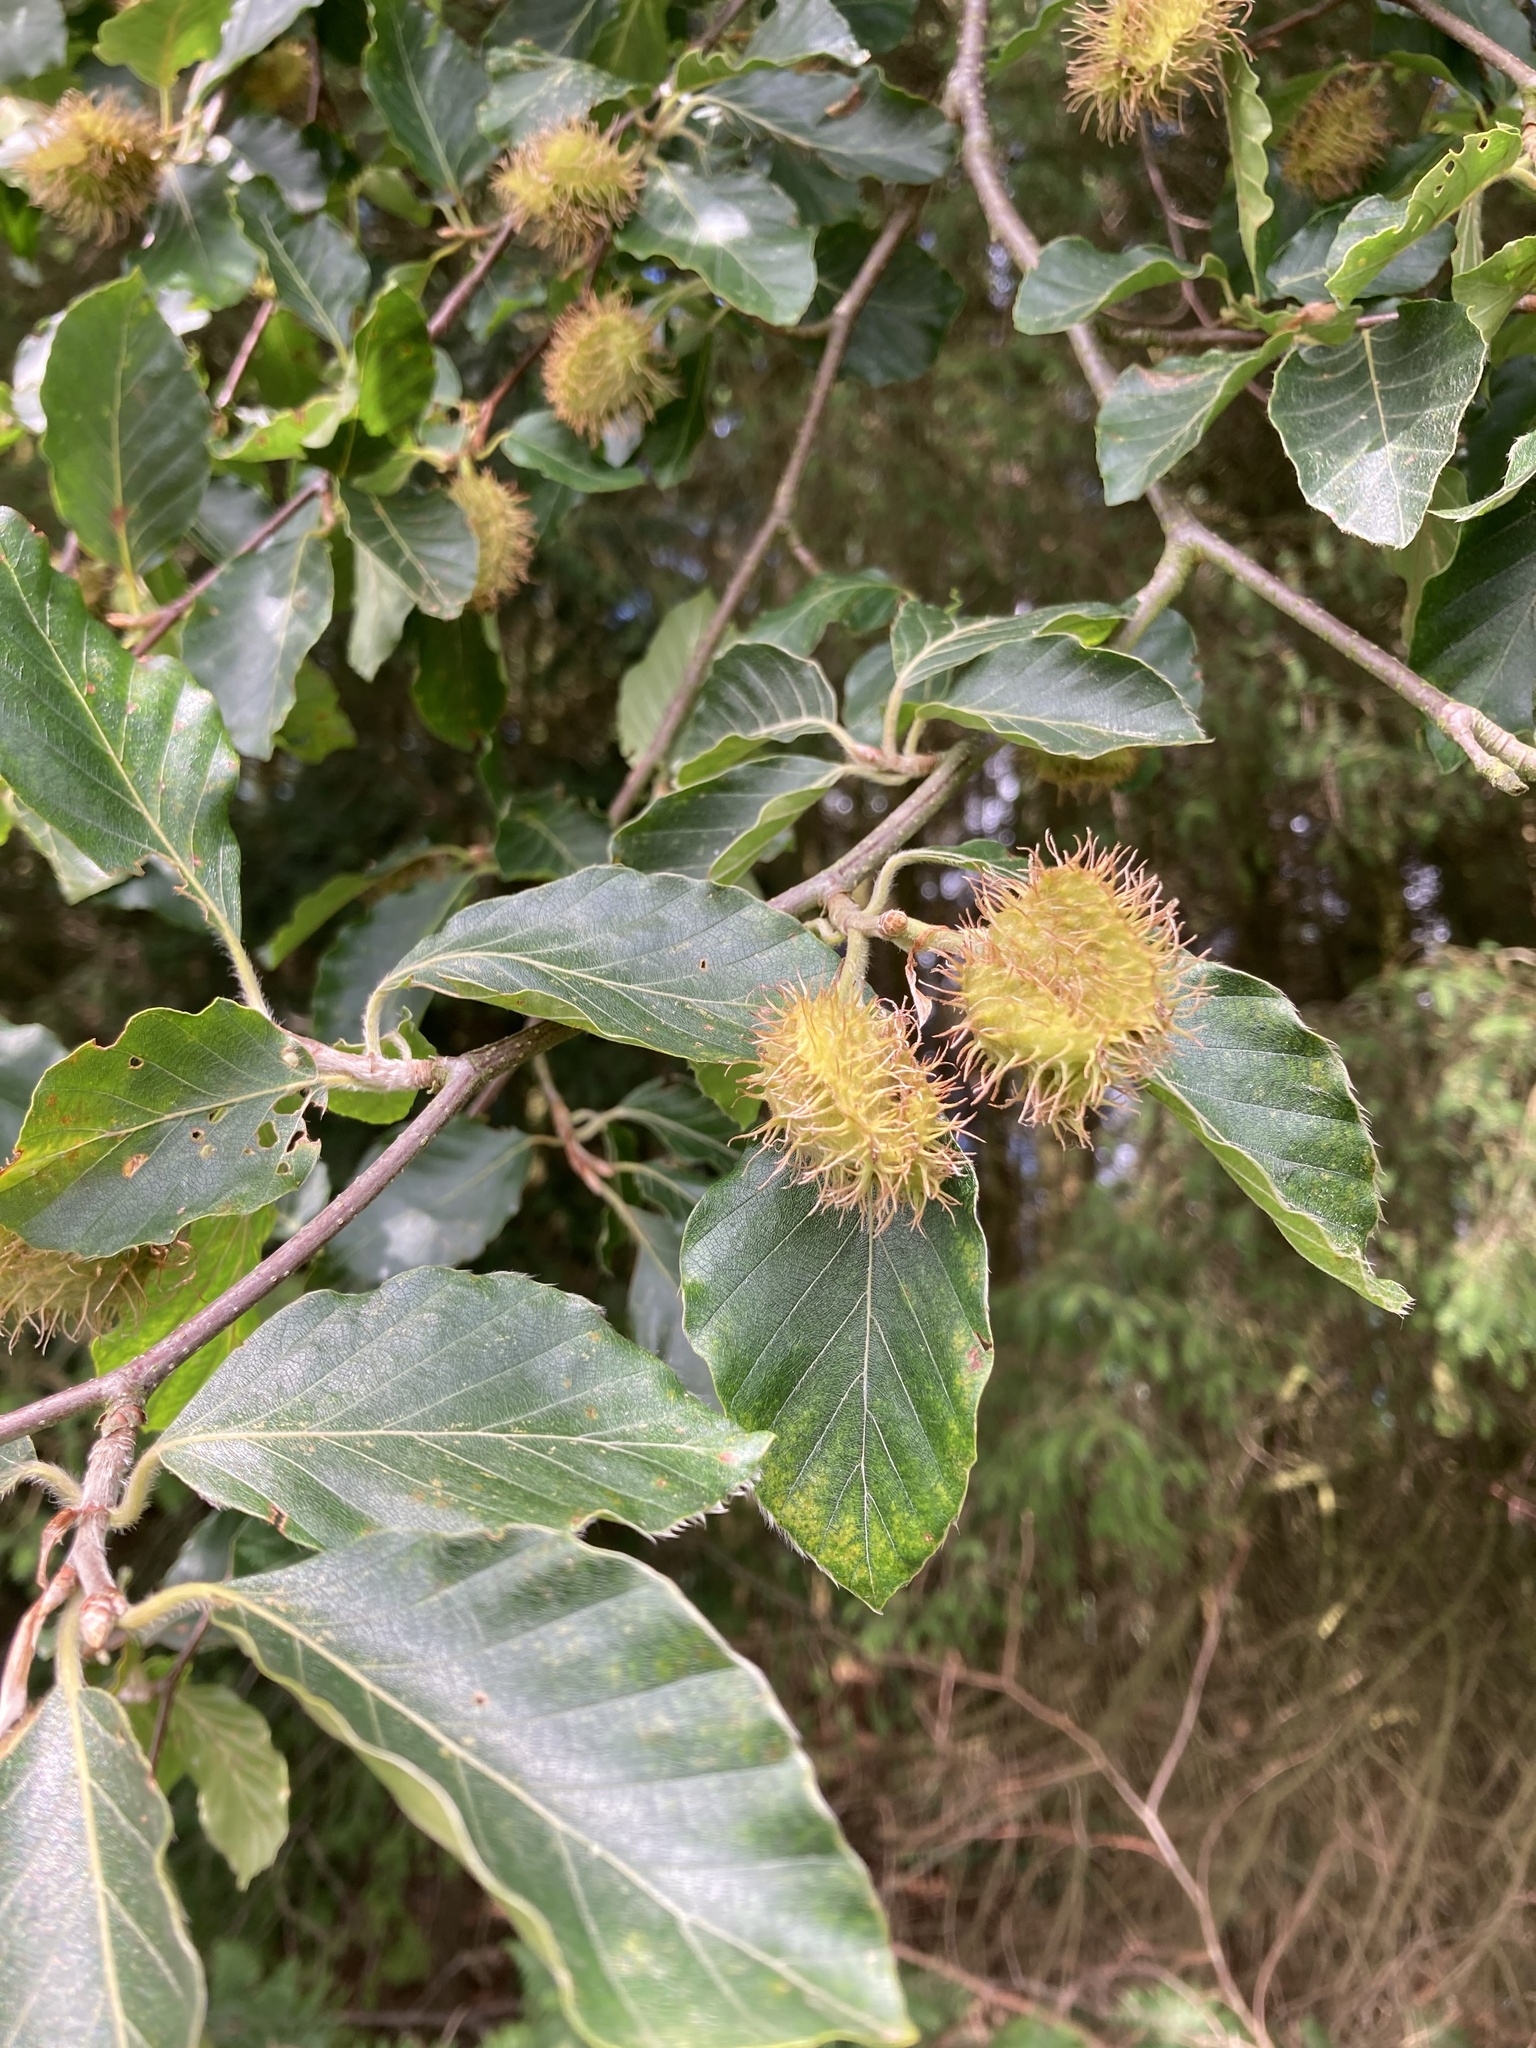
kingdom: Plantae
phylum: Tracheophyta
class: Magnoliopsida
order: Fagales
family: Fagaceae
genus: Fagus
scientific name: Fagus sylvatica
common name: Beech
